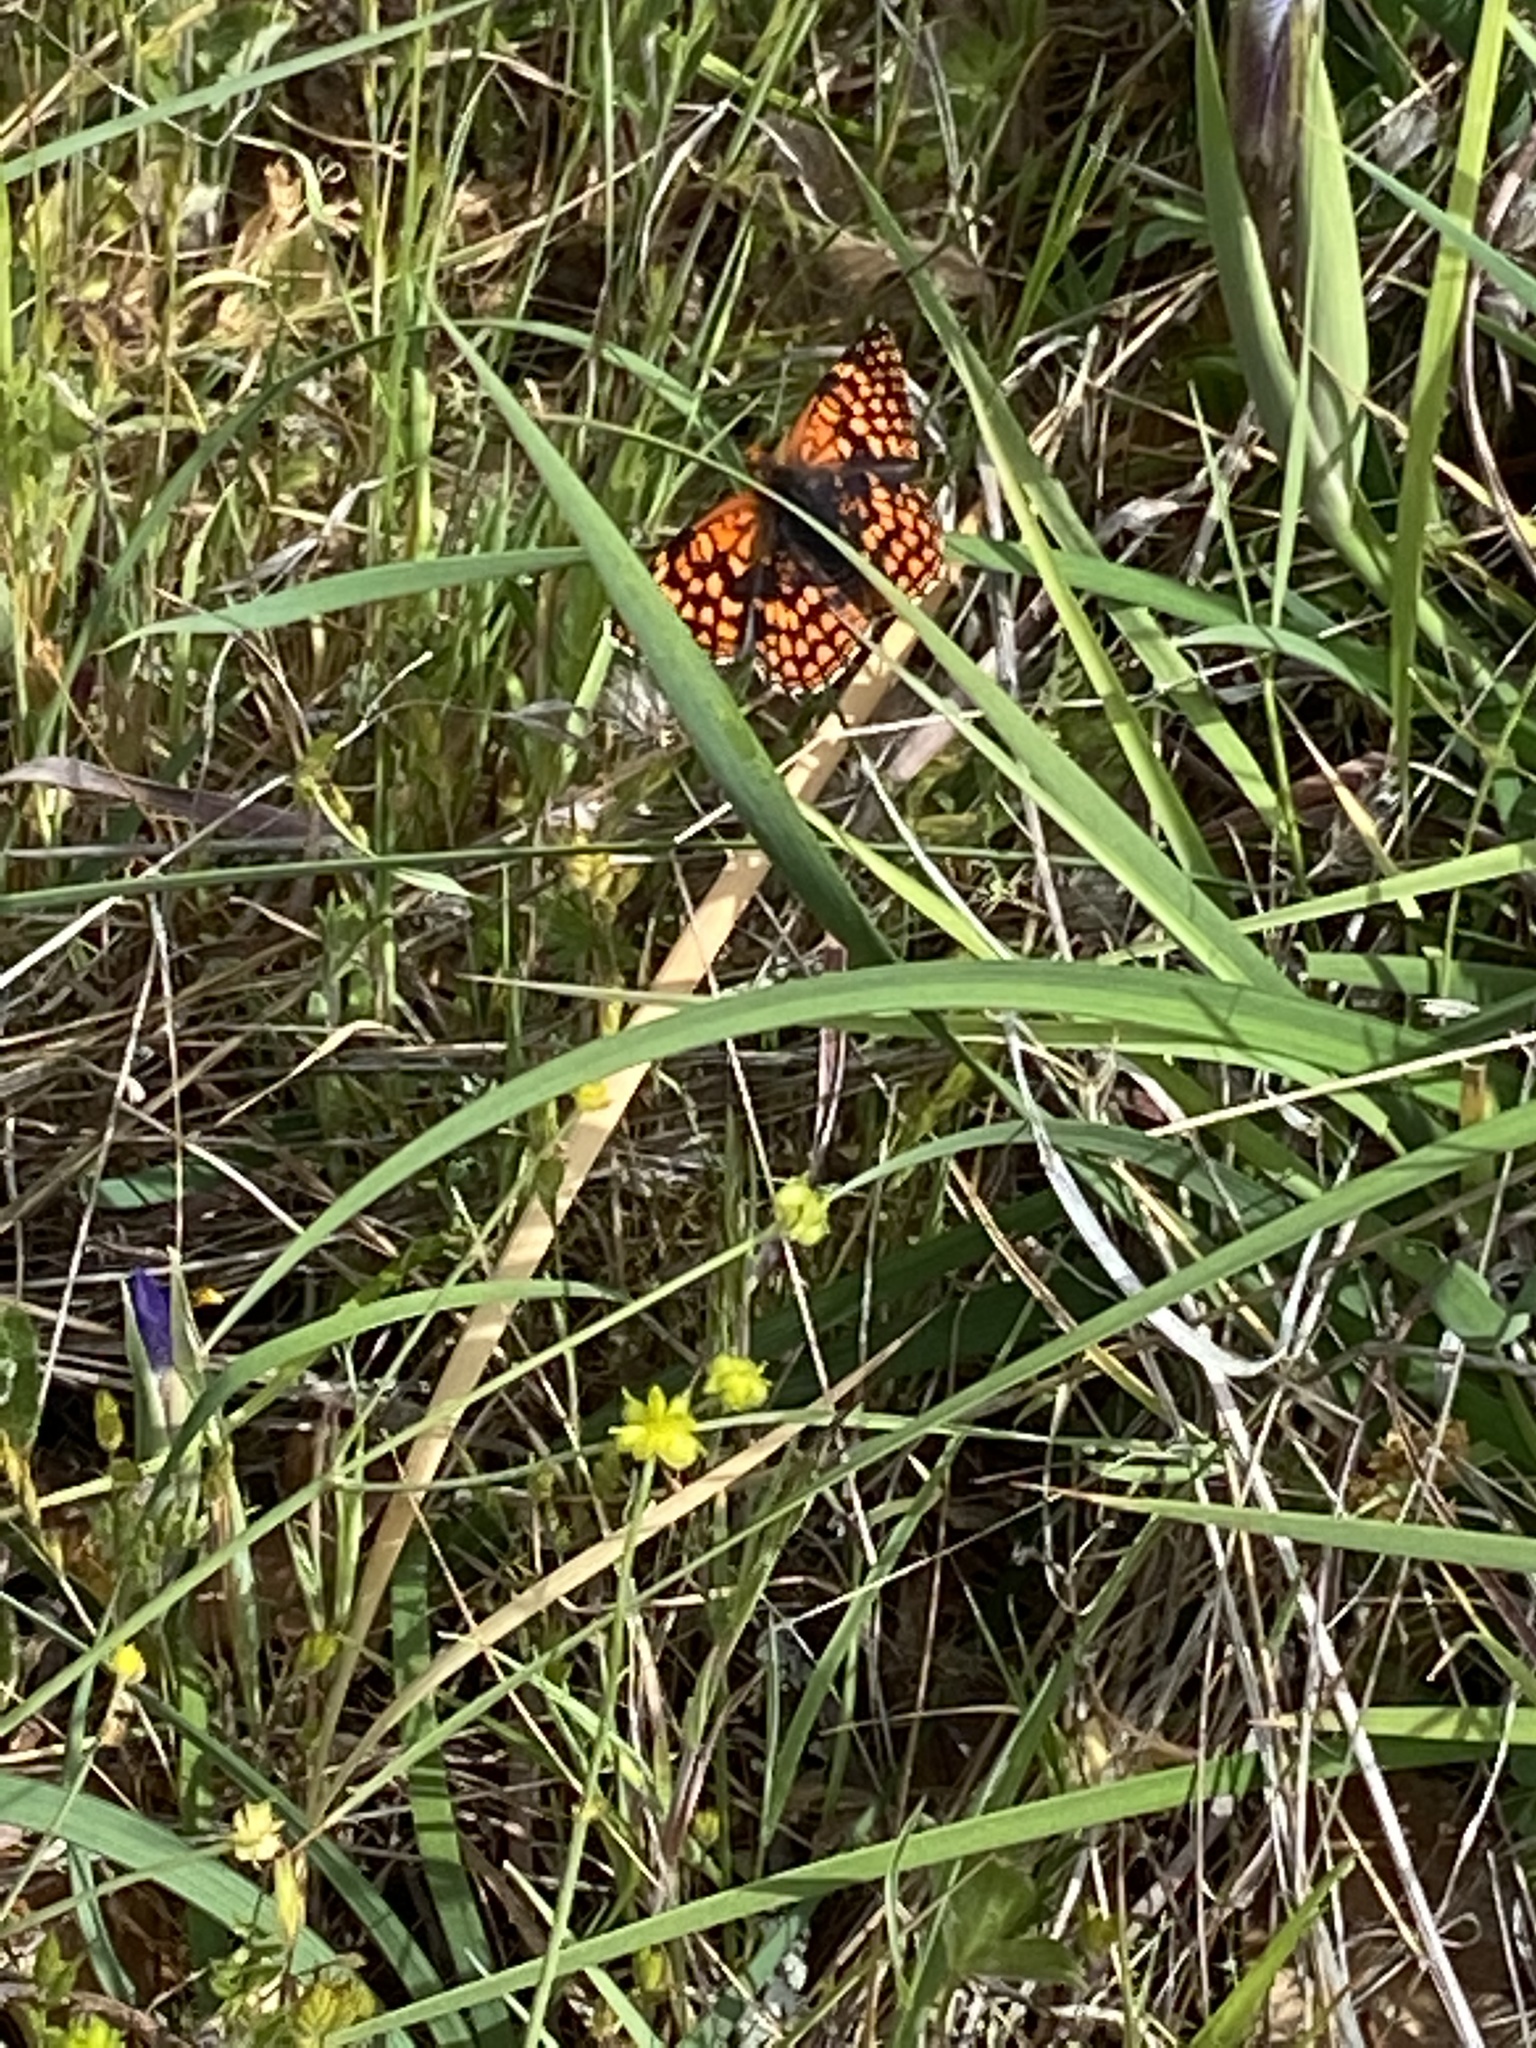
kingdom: Animalia
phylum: Arthropoda
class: Insecta
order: Lepidoptera
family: Nymphalidae
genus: Chlosyne
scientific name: Chlosyne palla
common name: Northern checkerspot
